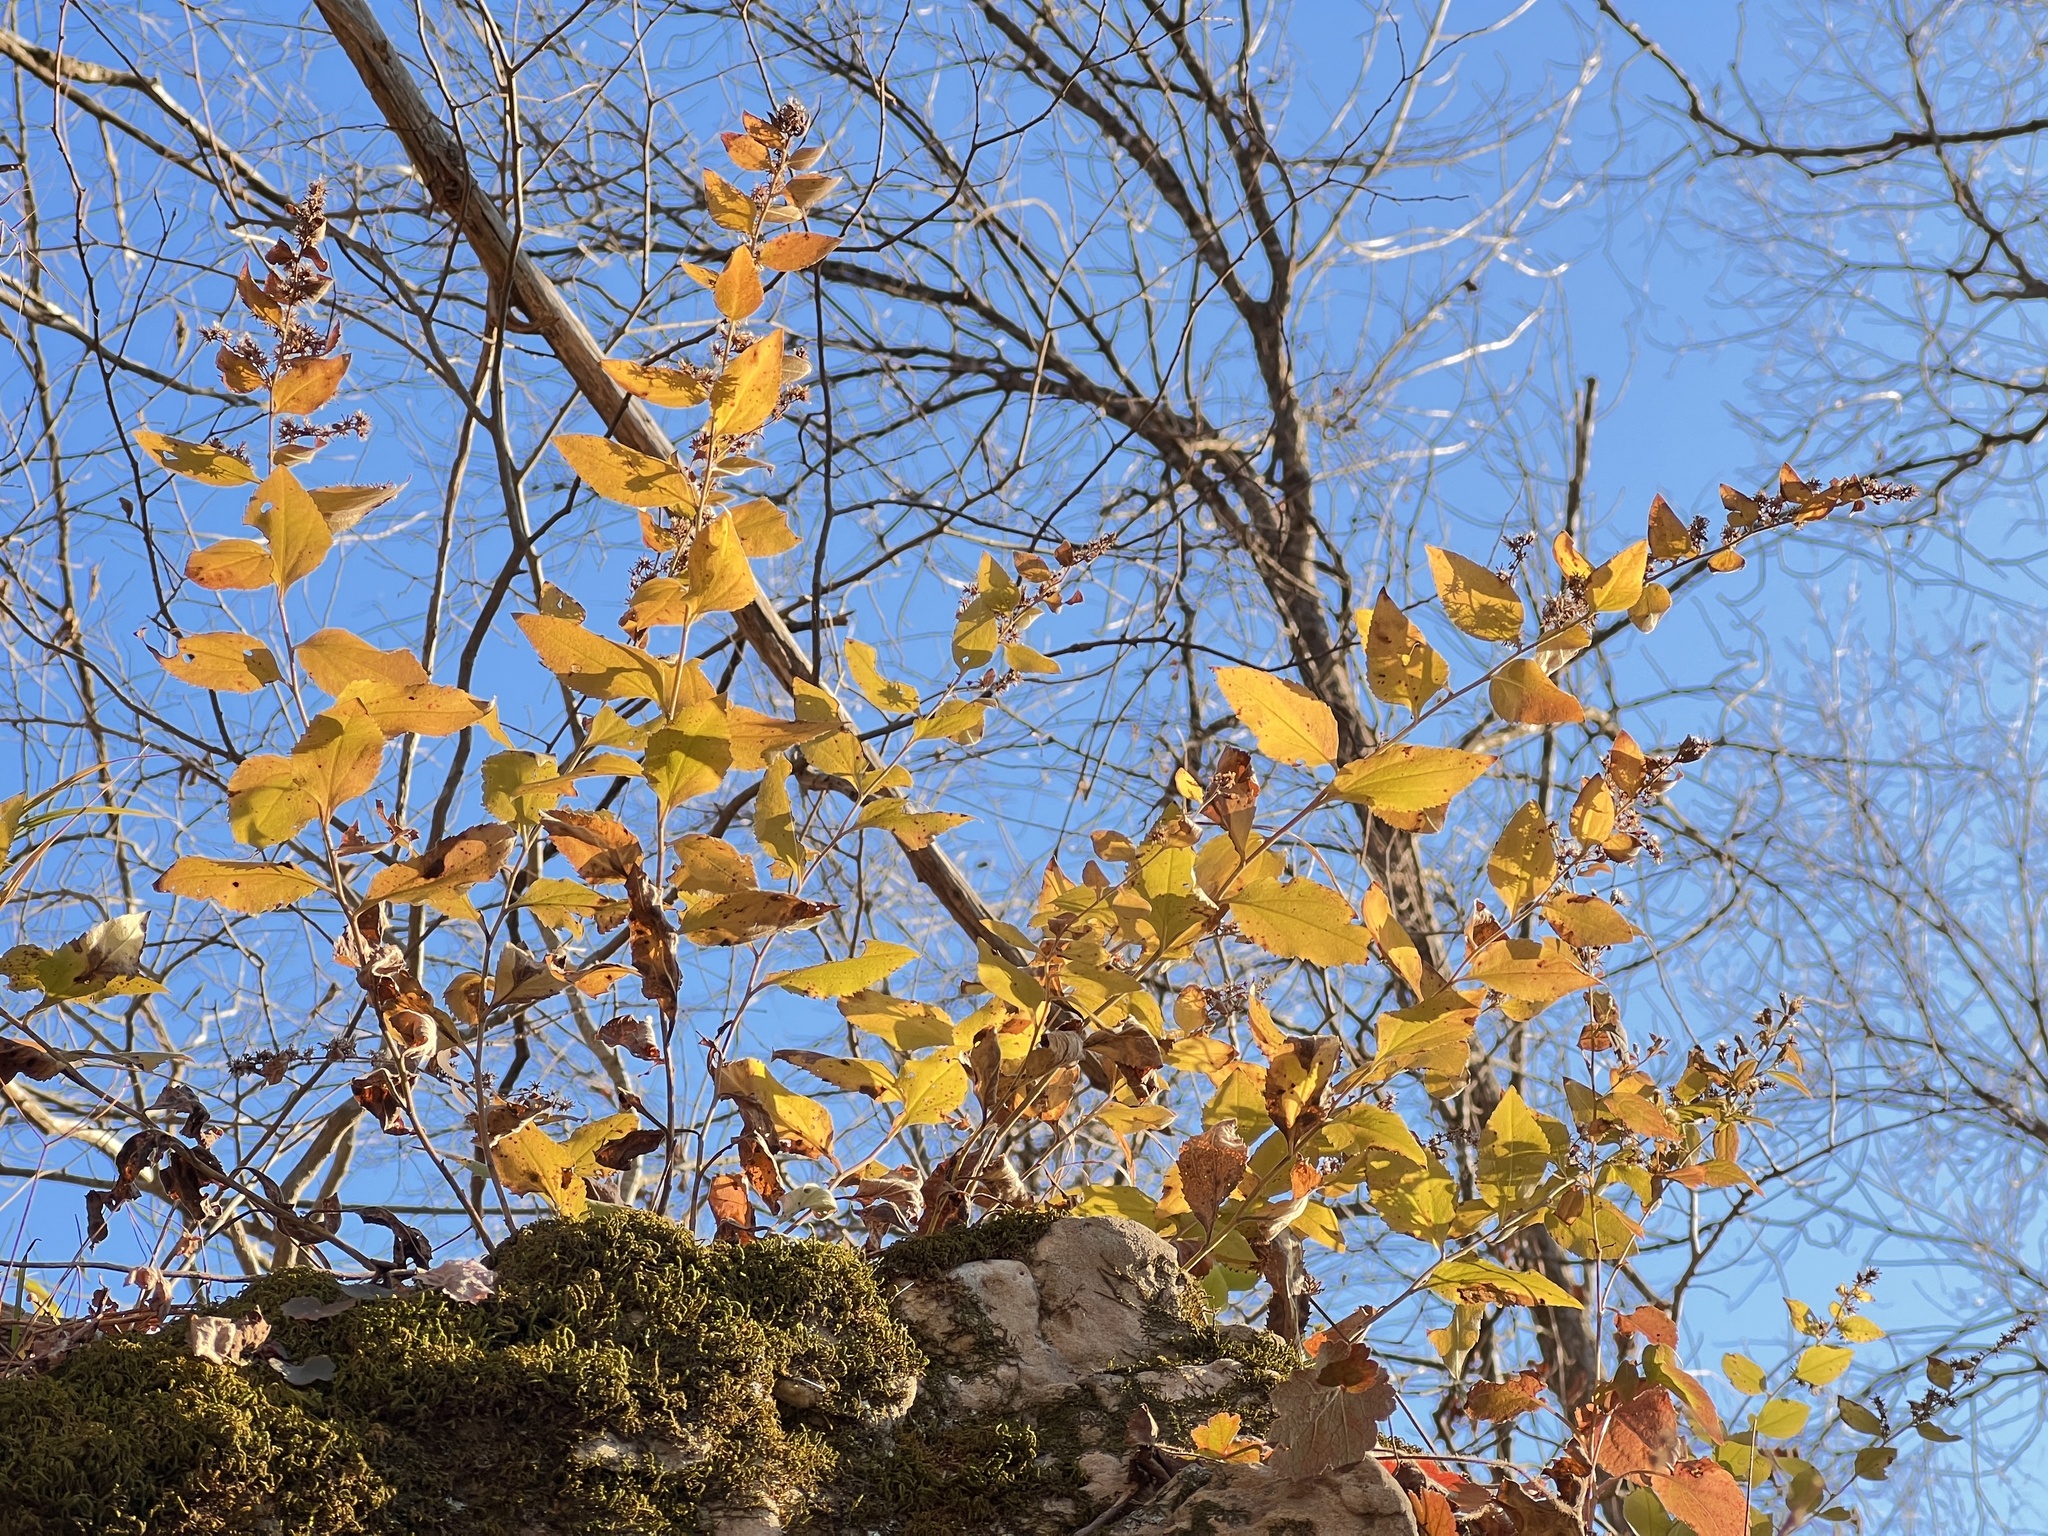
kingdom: Plantae
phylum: Tracheophyta
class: Magnoliopsida
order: Asterales
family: Asteraceae
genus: Solidago
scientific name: Solidago drummondii
